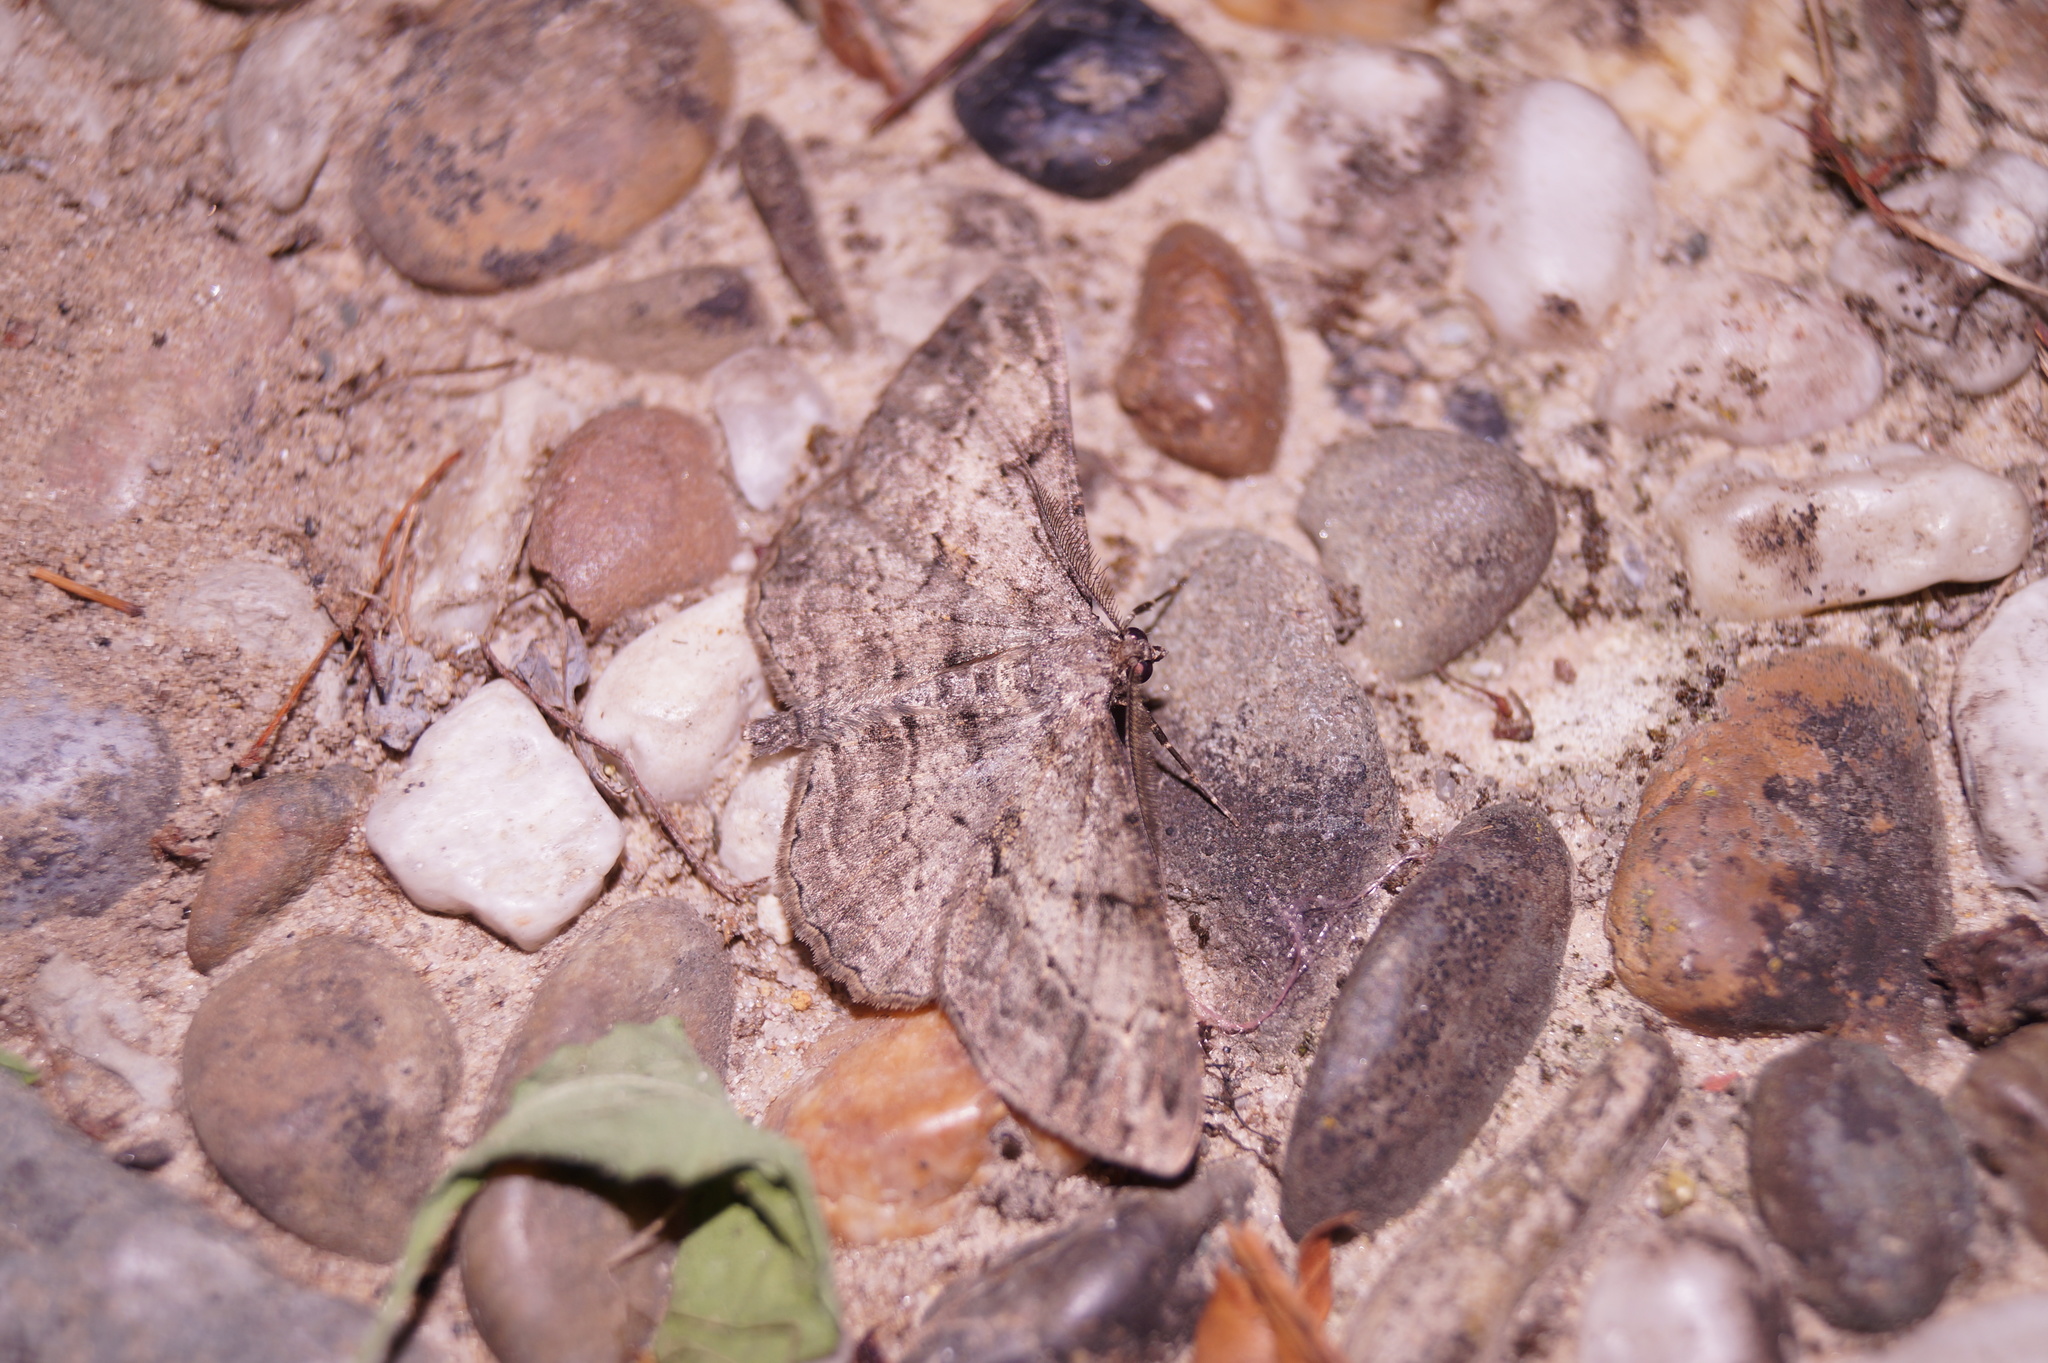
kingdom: Animalia
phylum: Arthropoda
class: Insecta
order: Lepidoptera
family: Geometridae
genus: Peribatodes
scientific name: Peribatodes rhomboidaria
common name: Willow beauty
